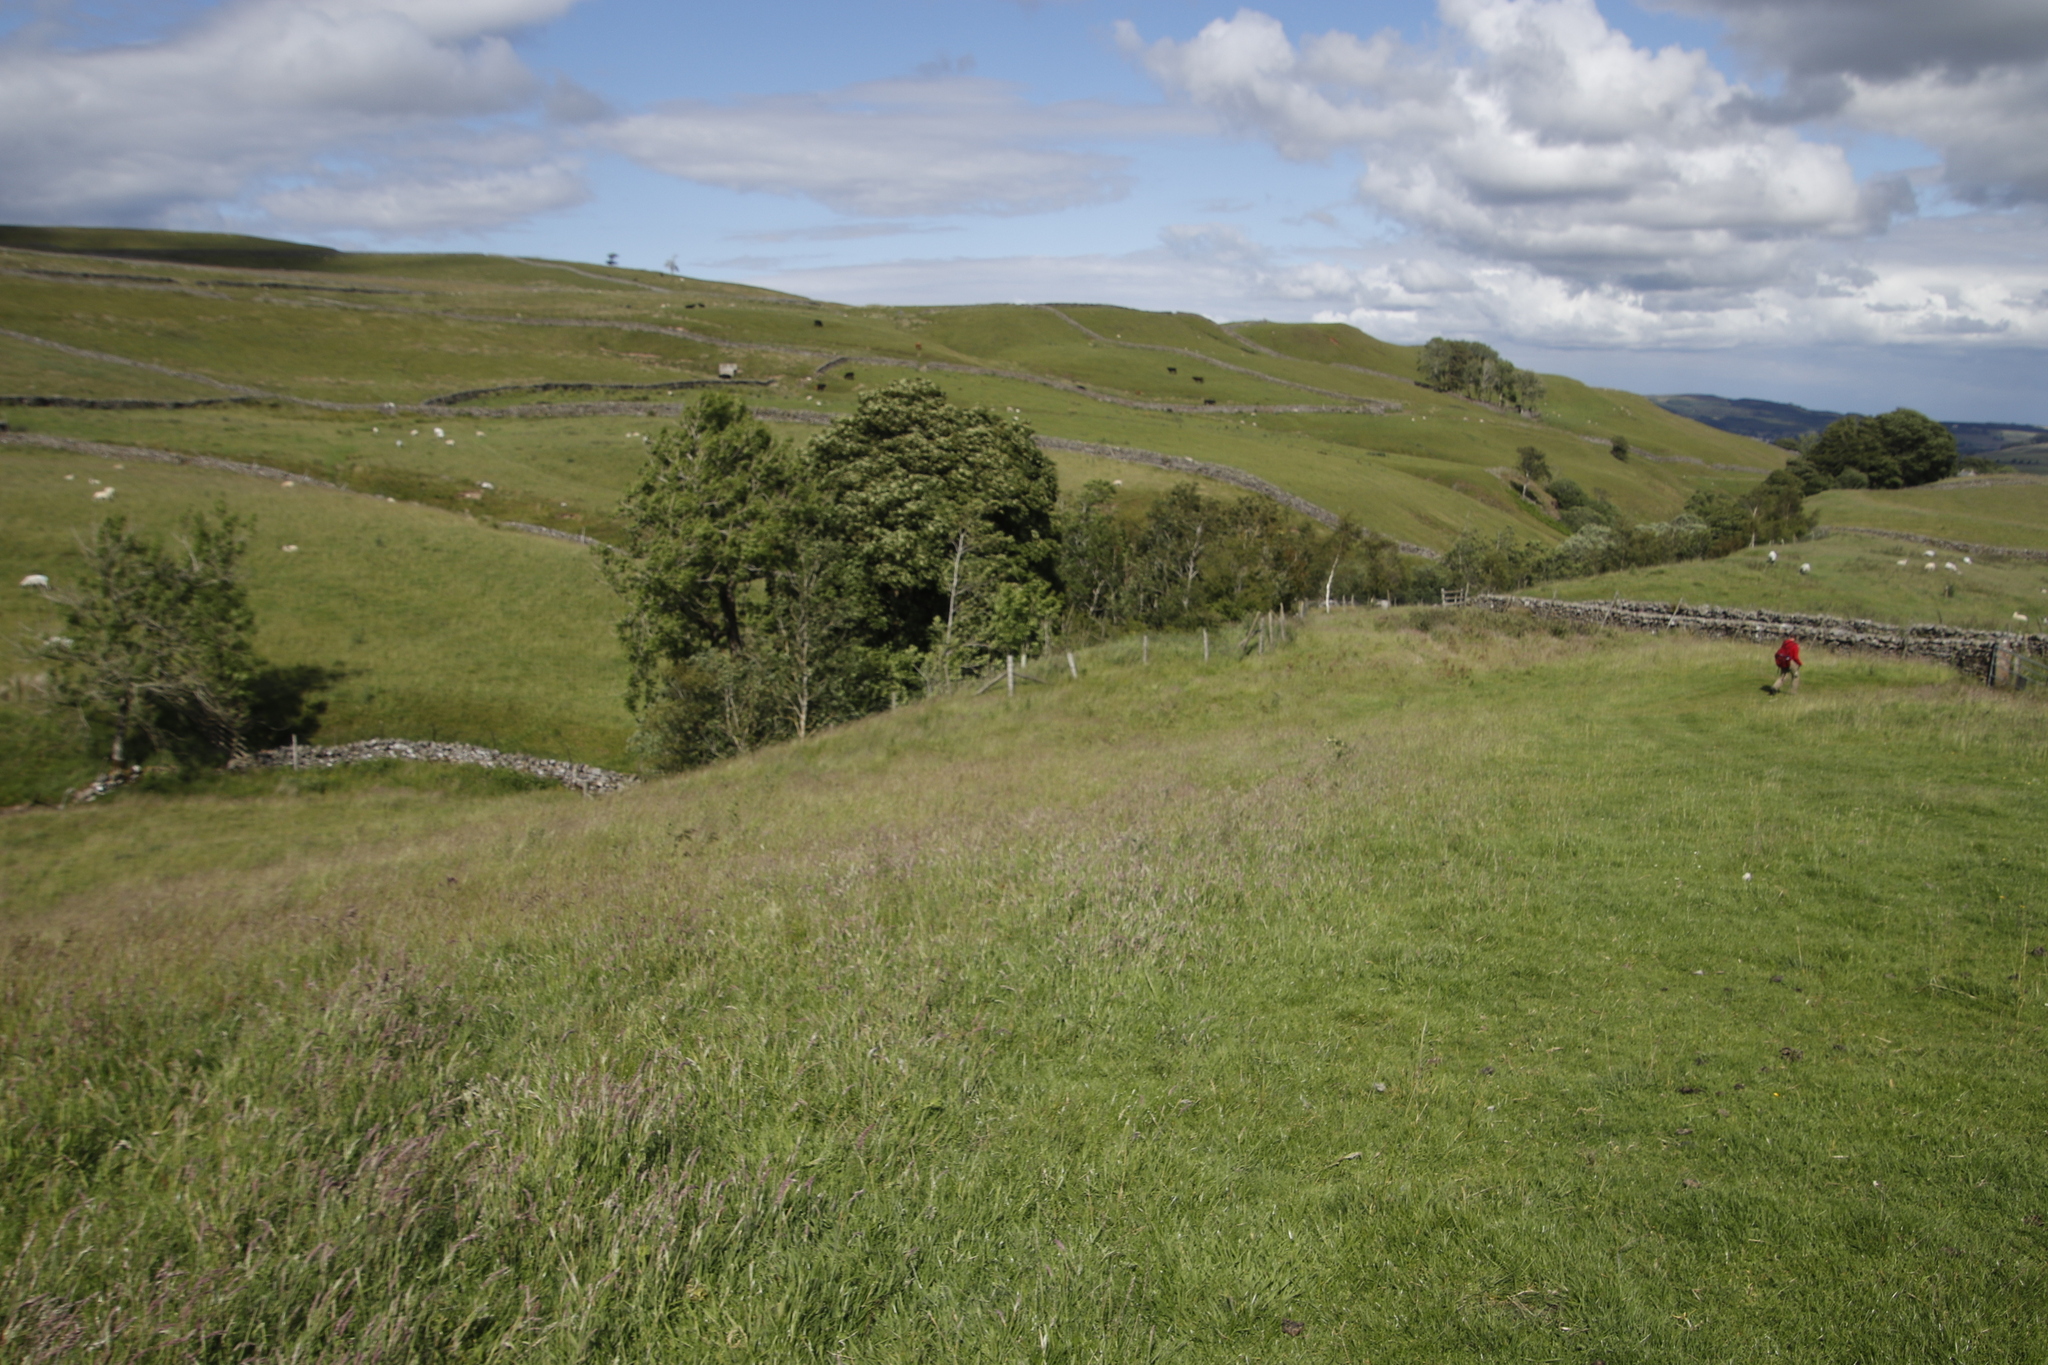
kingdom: Plantae
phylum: Tracheophyta
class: Magnoliopsida
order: Sapindales
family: Sapindaceae
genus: Acer
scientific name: Acer pseudoplatanus
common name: Sycamore
